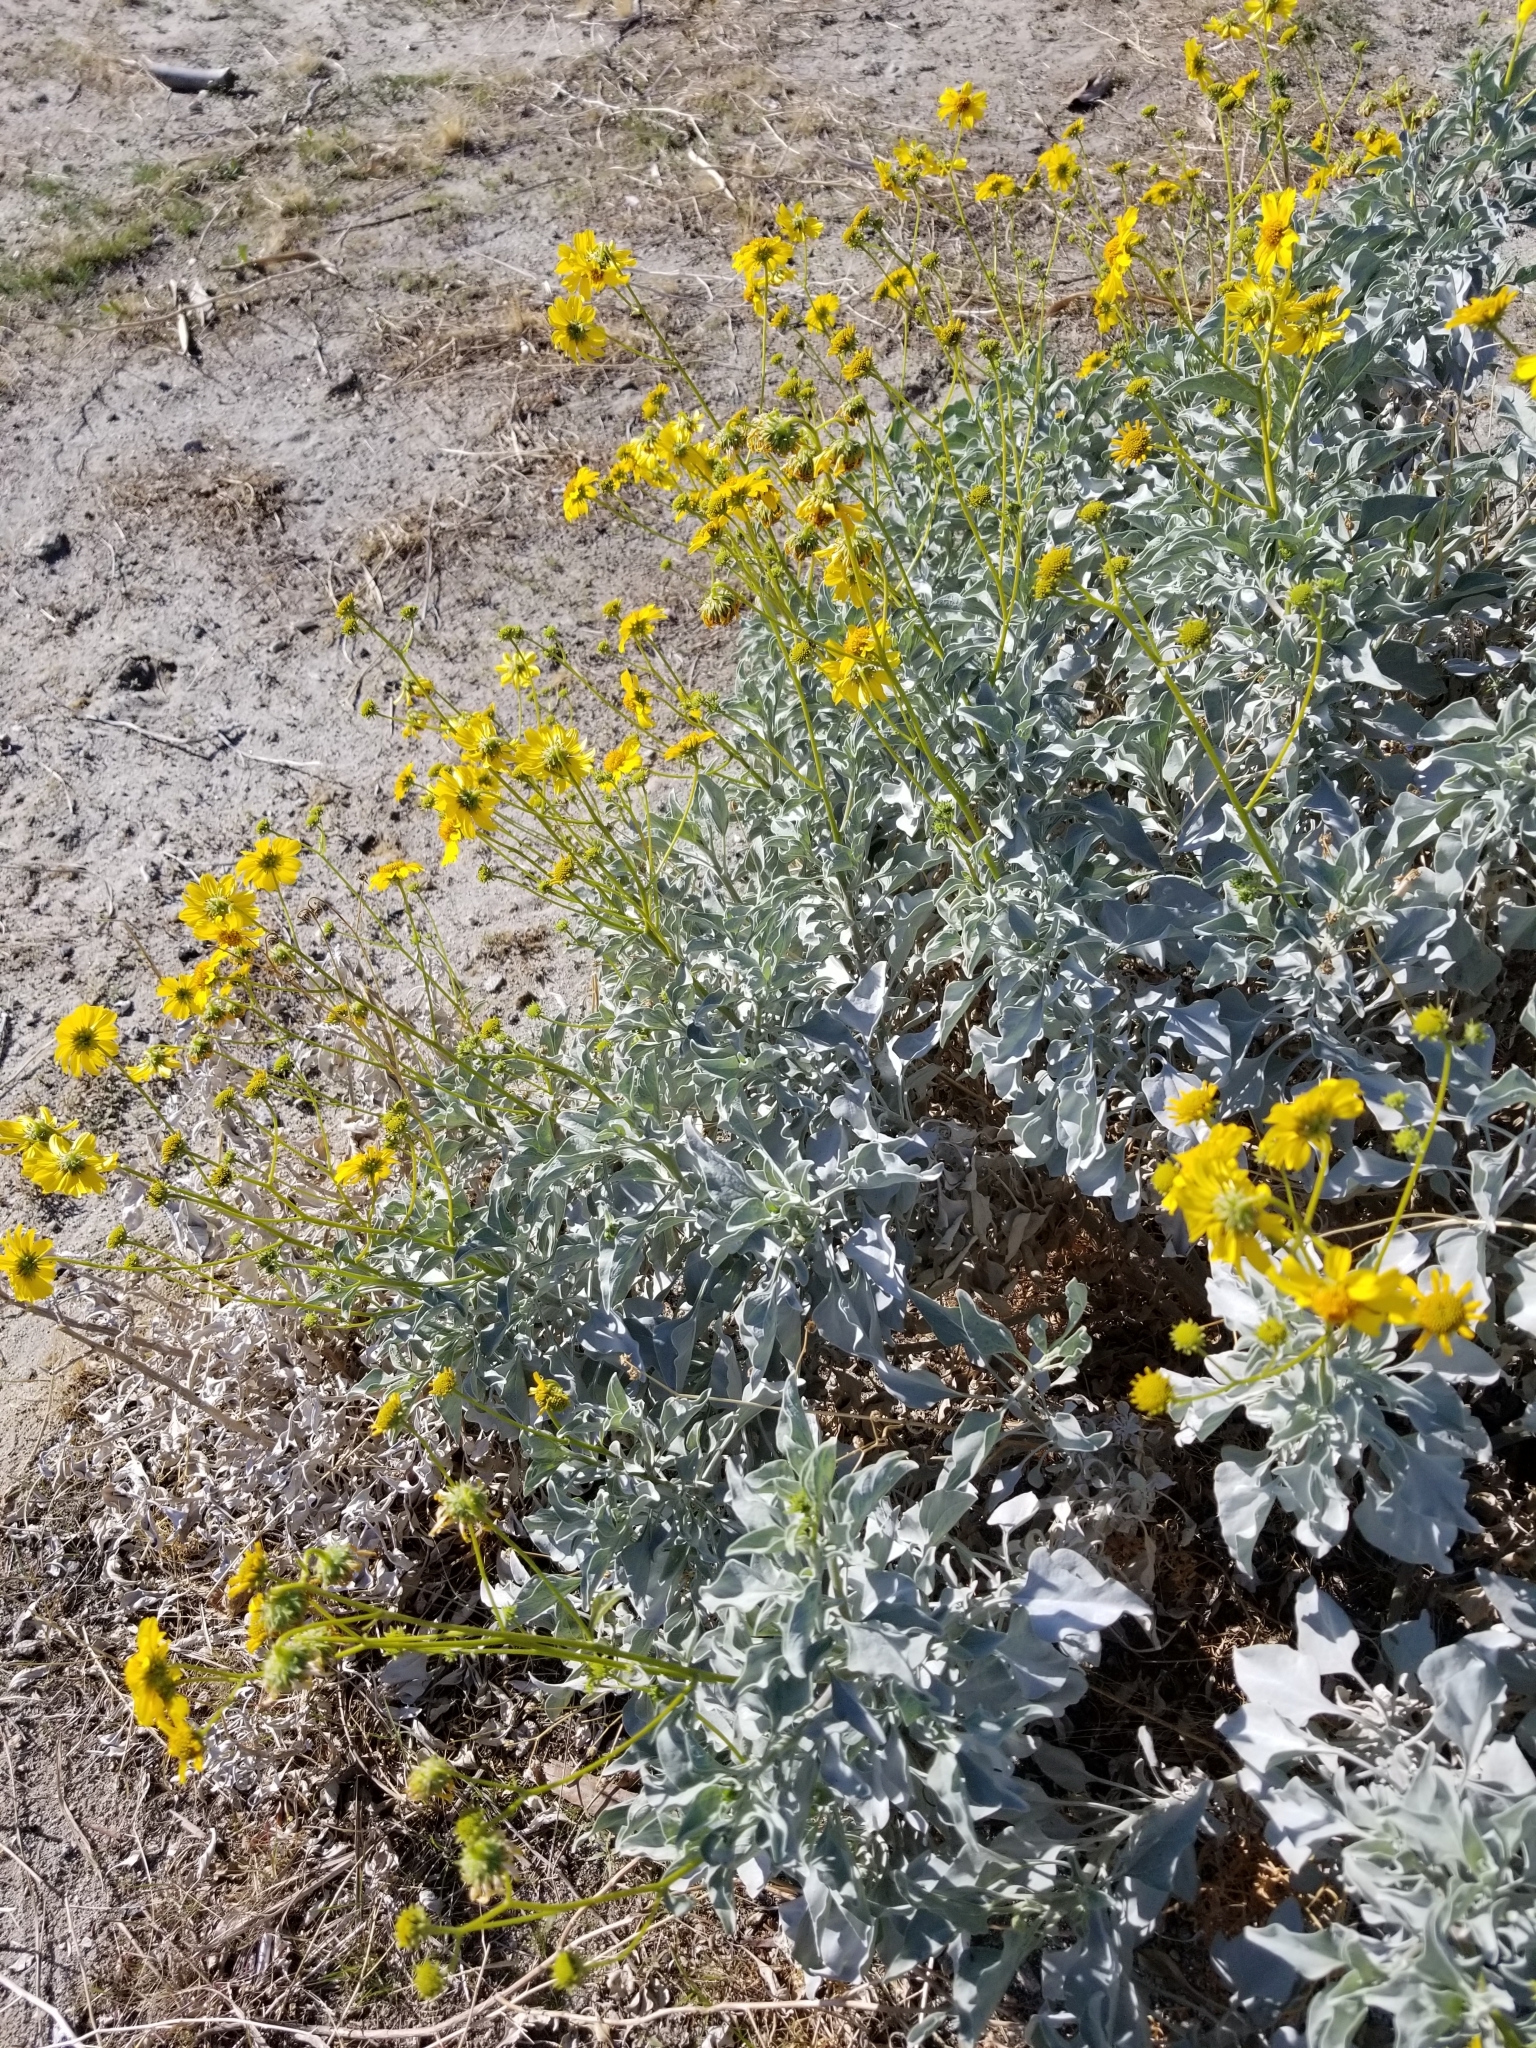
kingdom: Plantae
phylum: Tracheophyta
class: Magnoliopsida
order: Asterales
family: Asteraceae
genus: Encelia
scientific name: Encelia farinosa
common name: Brittlebush
